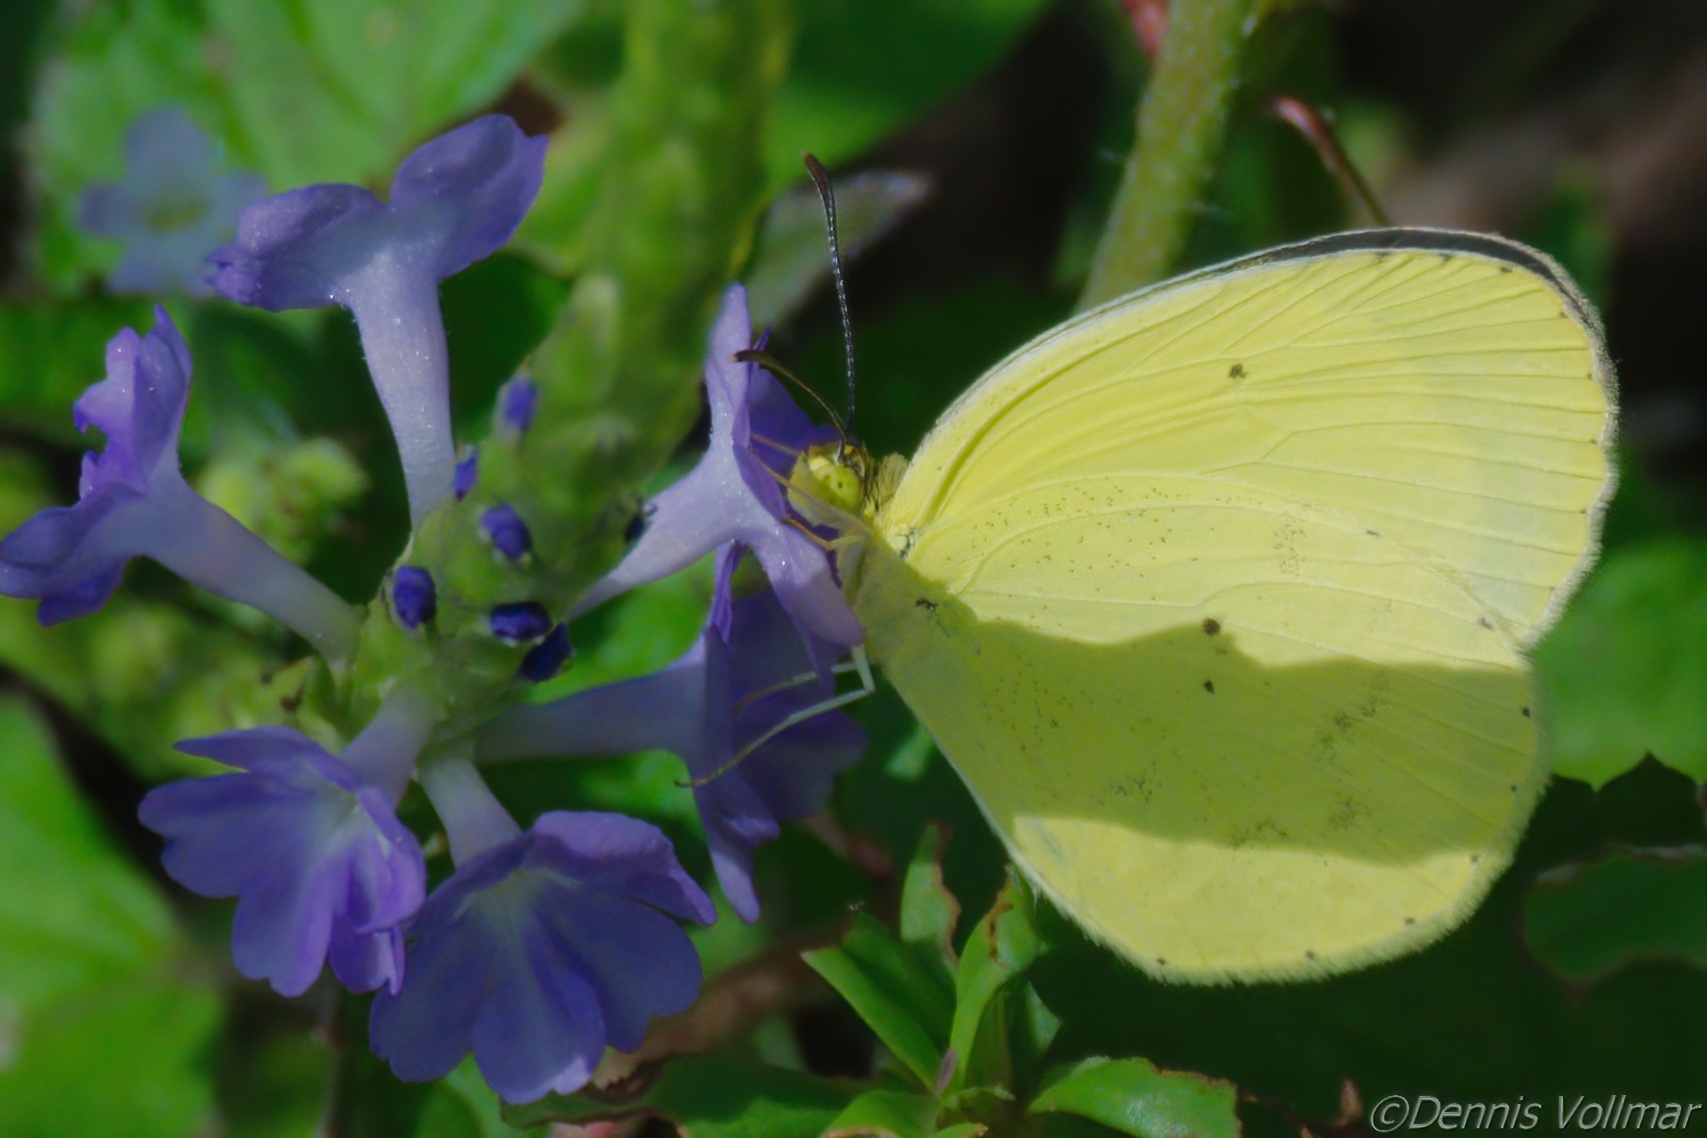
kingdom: Animalia
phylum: Arthropoda
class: Insecta
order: Lepidoptera
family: Pieridae
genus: Pyrisitia
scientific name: Pyrisitia nise
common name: Mimosa yellow
